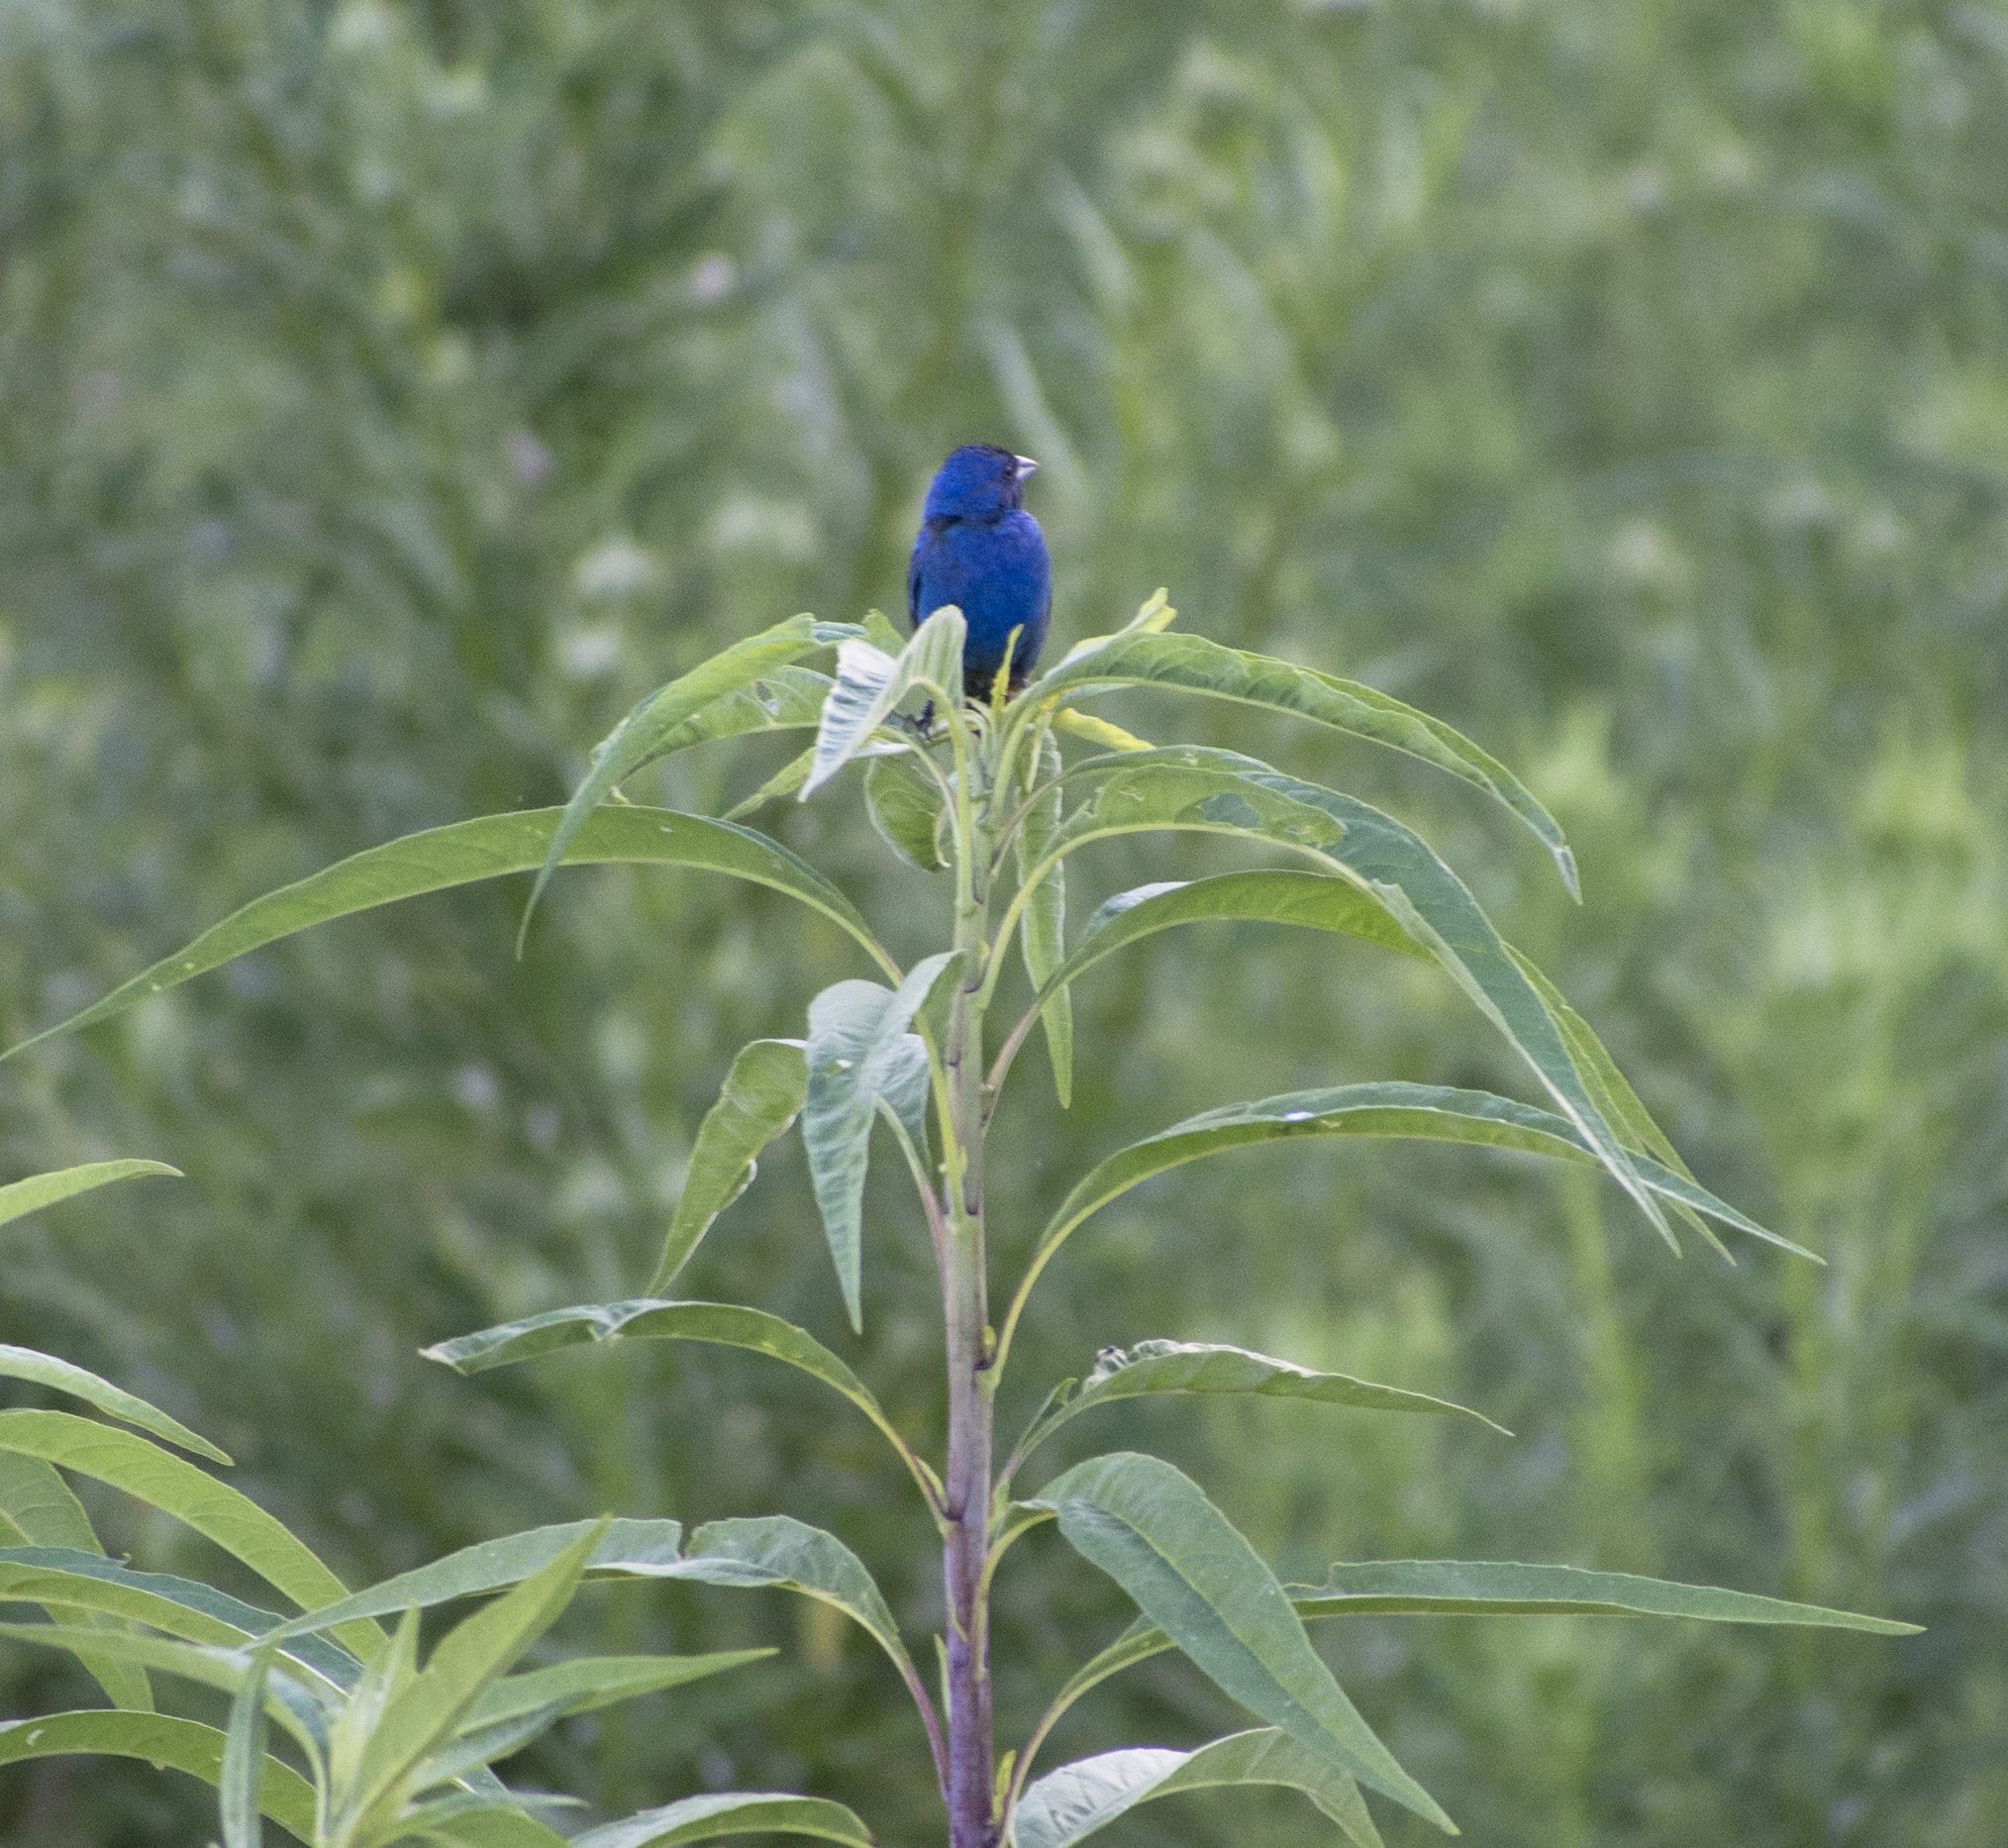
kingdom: Animalia
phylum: Chordata
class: Aves
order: Passeriformes
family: Cardinalidae
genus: Passerina
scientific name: Passerina cyanea
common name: Indigo bunting
